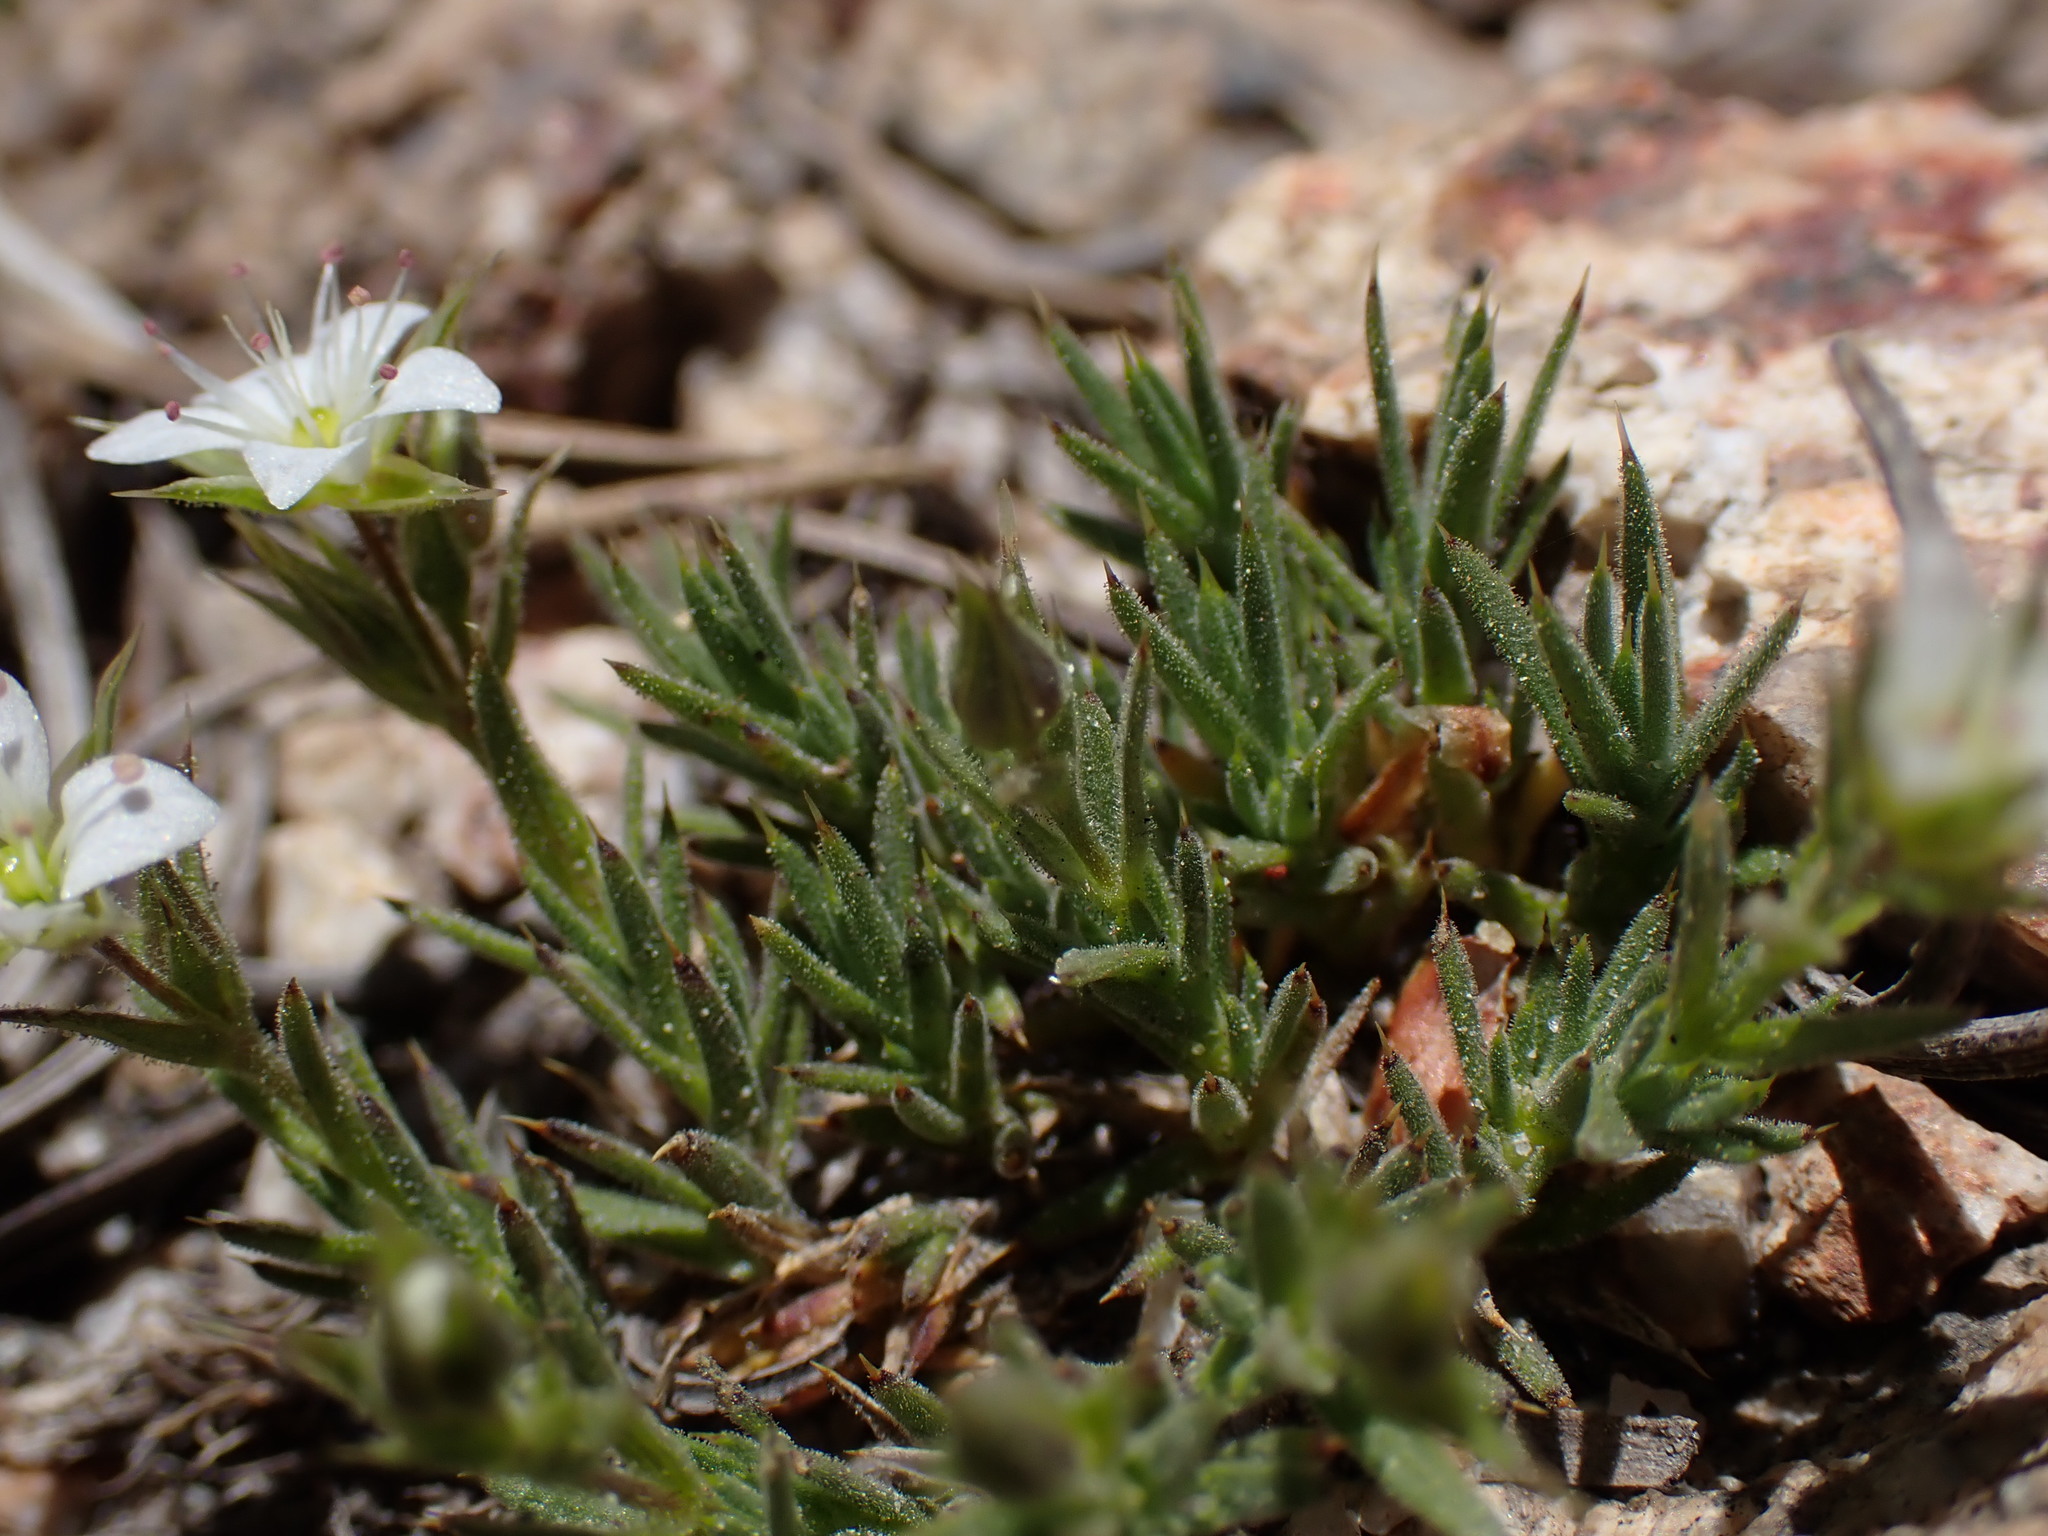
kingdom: Plantae
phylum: Tracheophyta
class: Magnoliopsida
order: Caryophyllales
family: Caryophyllaceae
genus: Sabulina
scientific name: Sabulina nuttallii
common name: Nuttall's stitchwort
